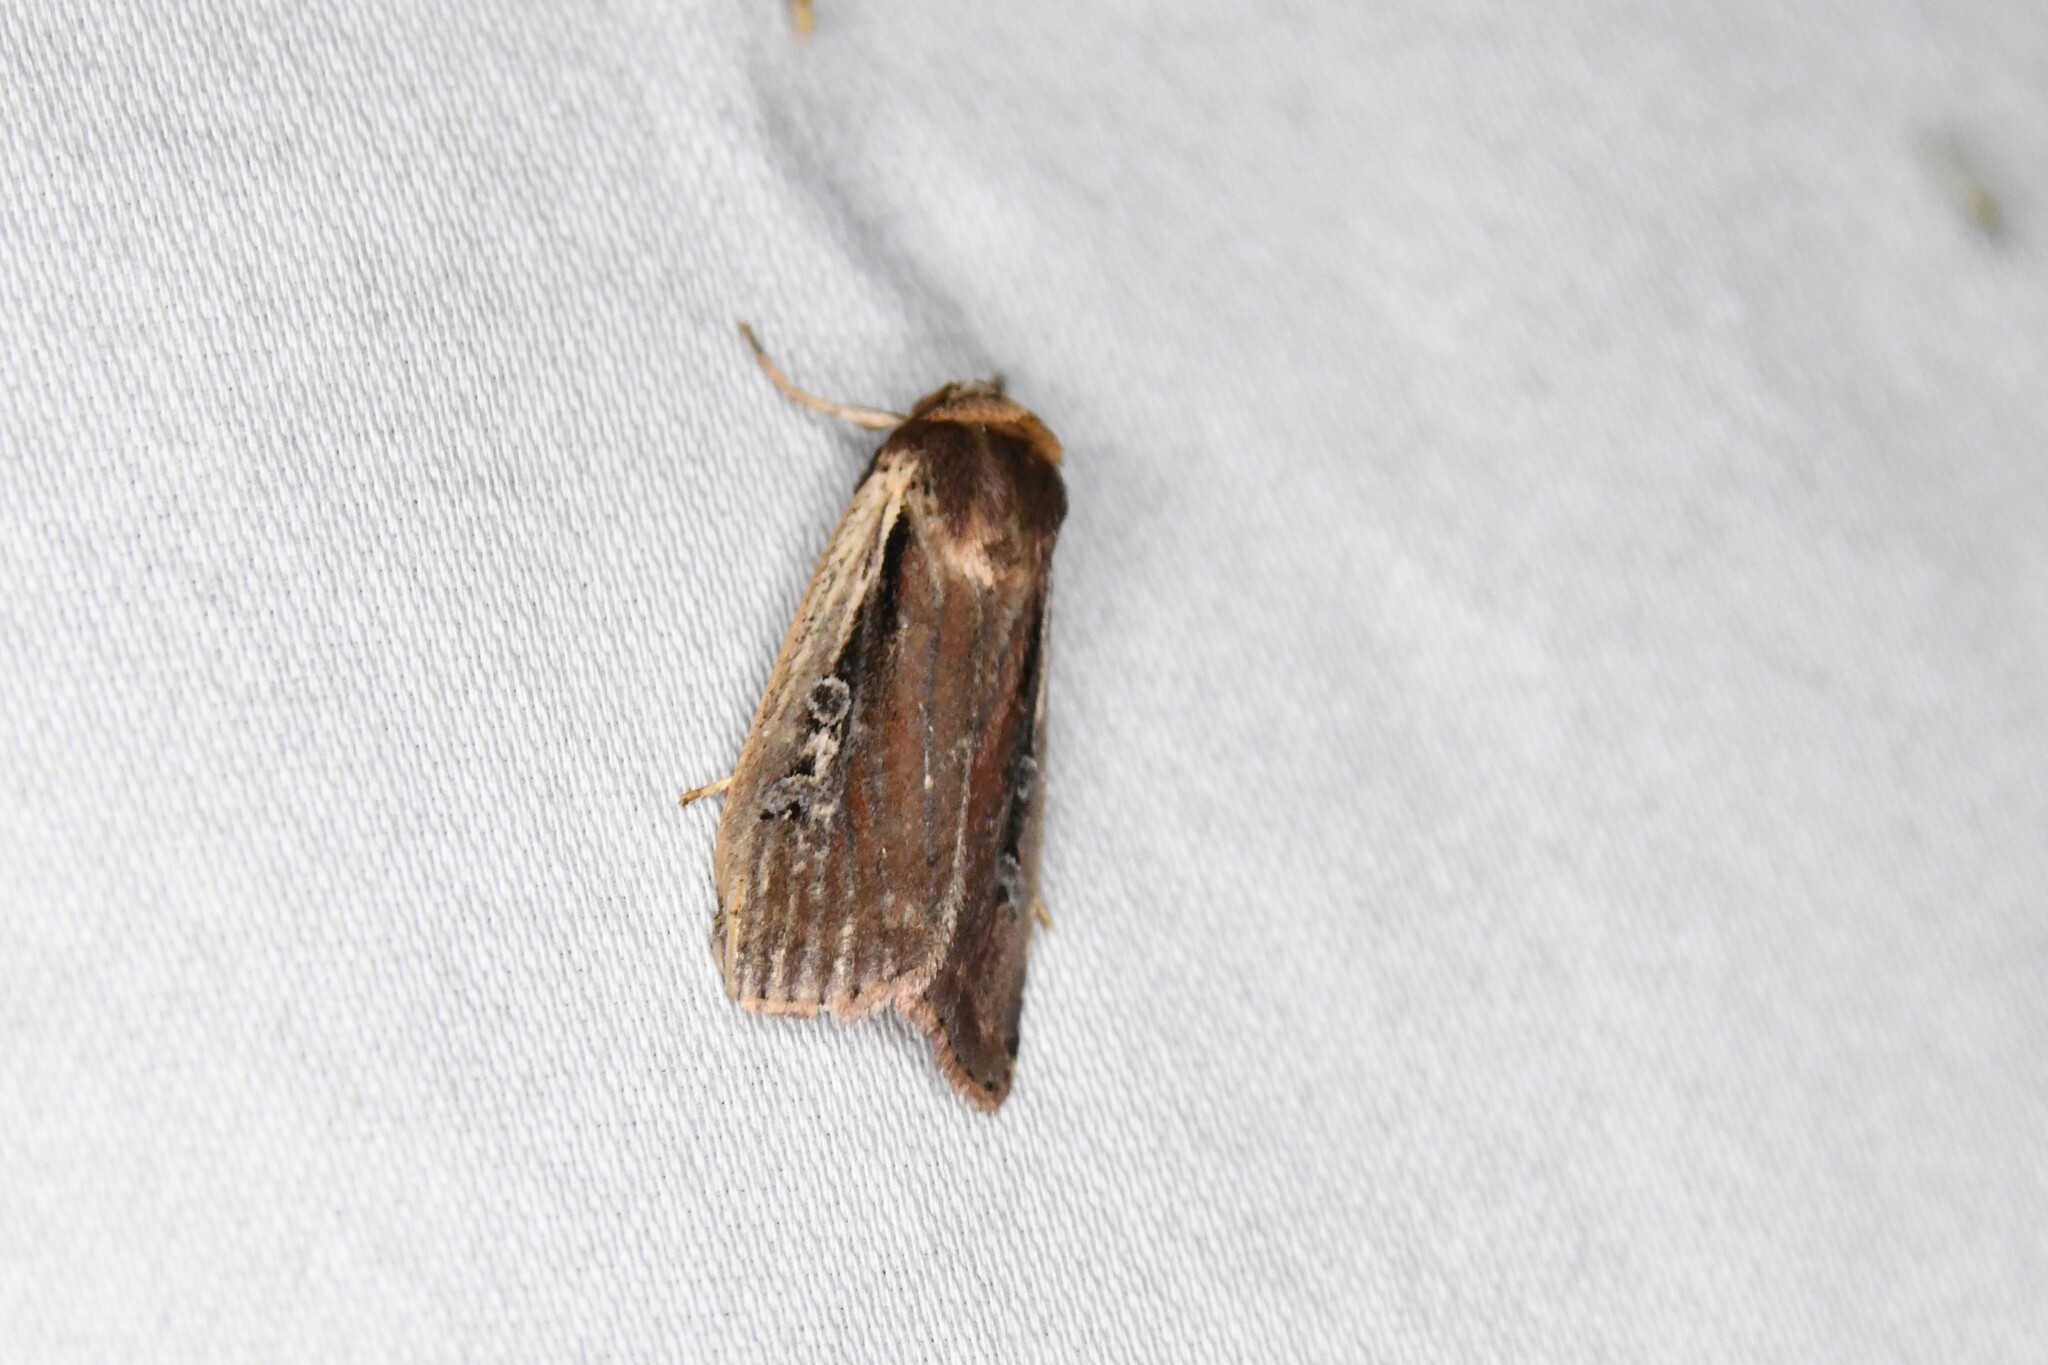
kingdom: Animalia
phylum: Arthropoda
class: Insecta
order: Lepidoptera
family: Noctuidae
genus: Ochropleura
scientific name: Ochropleura implecta
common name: Flame-shouldered dart
